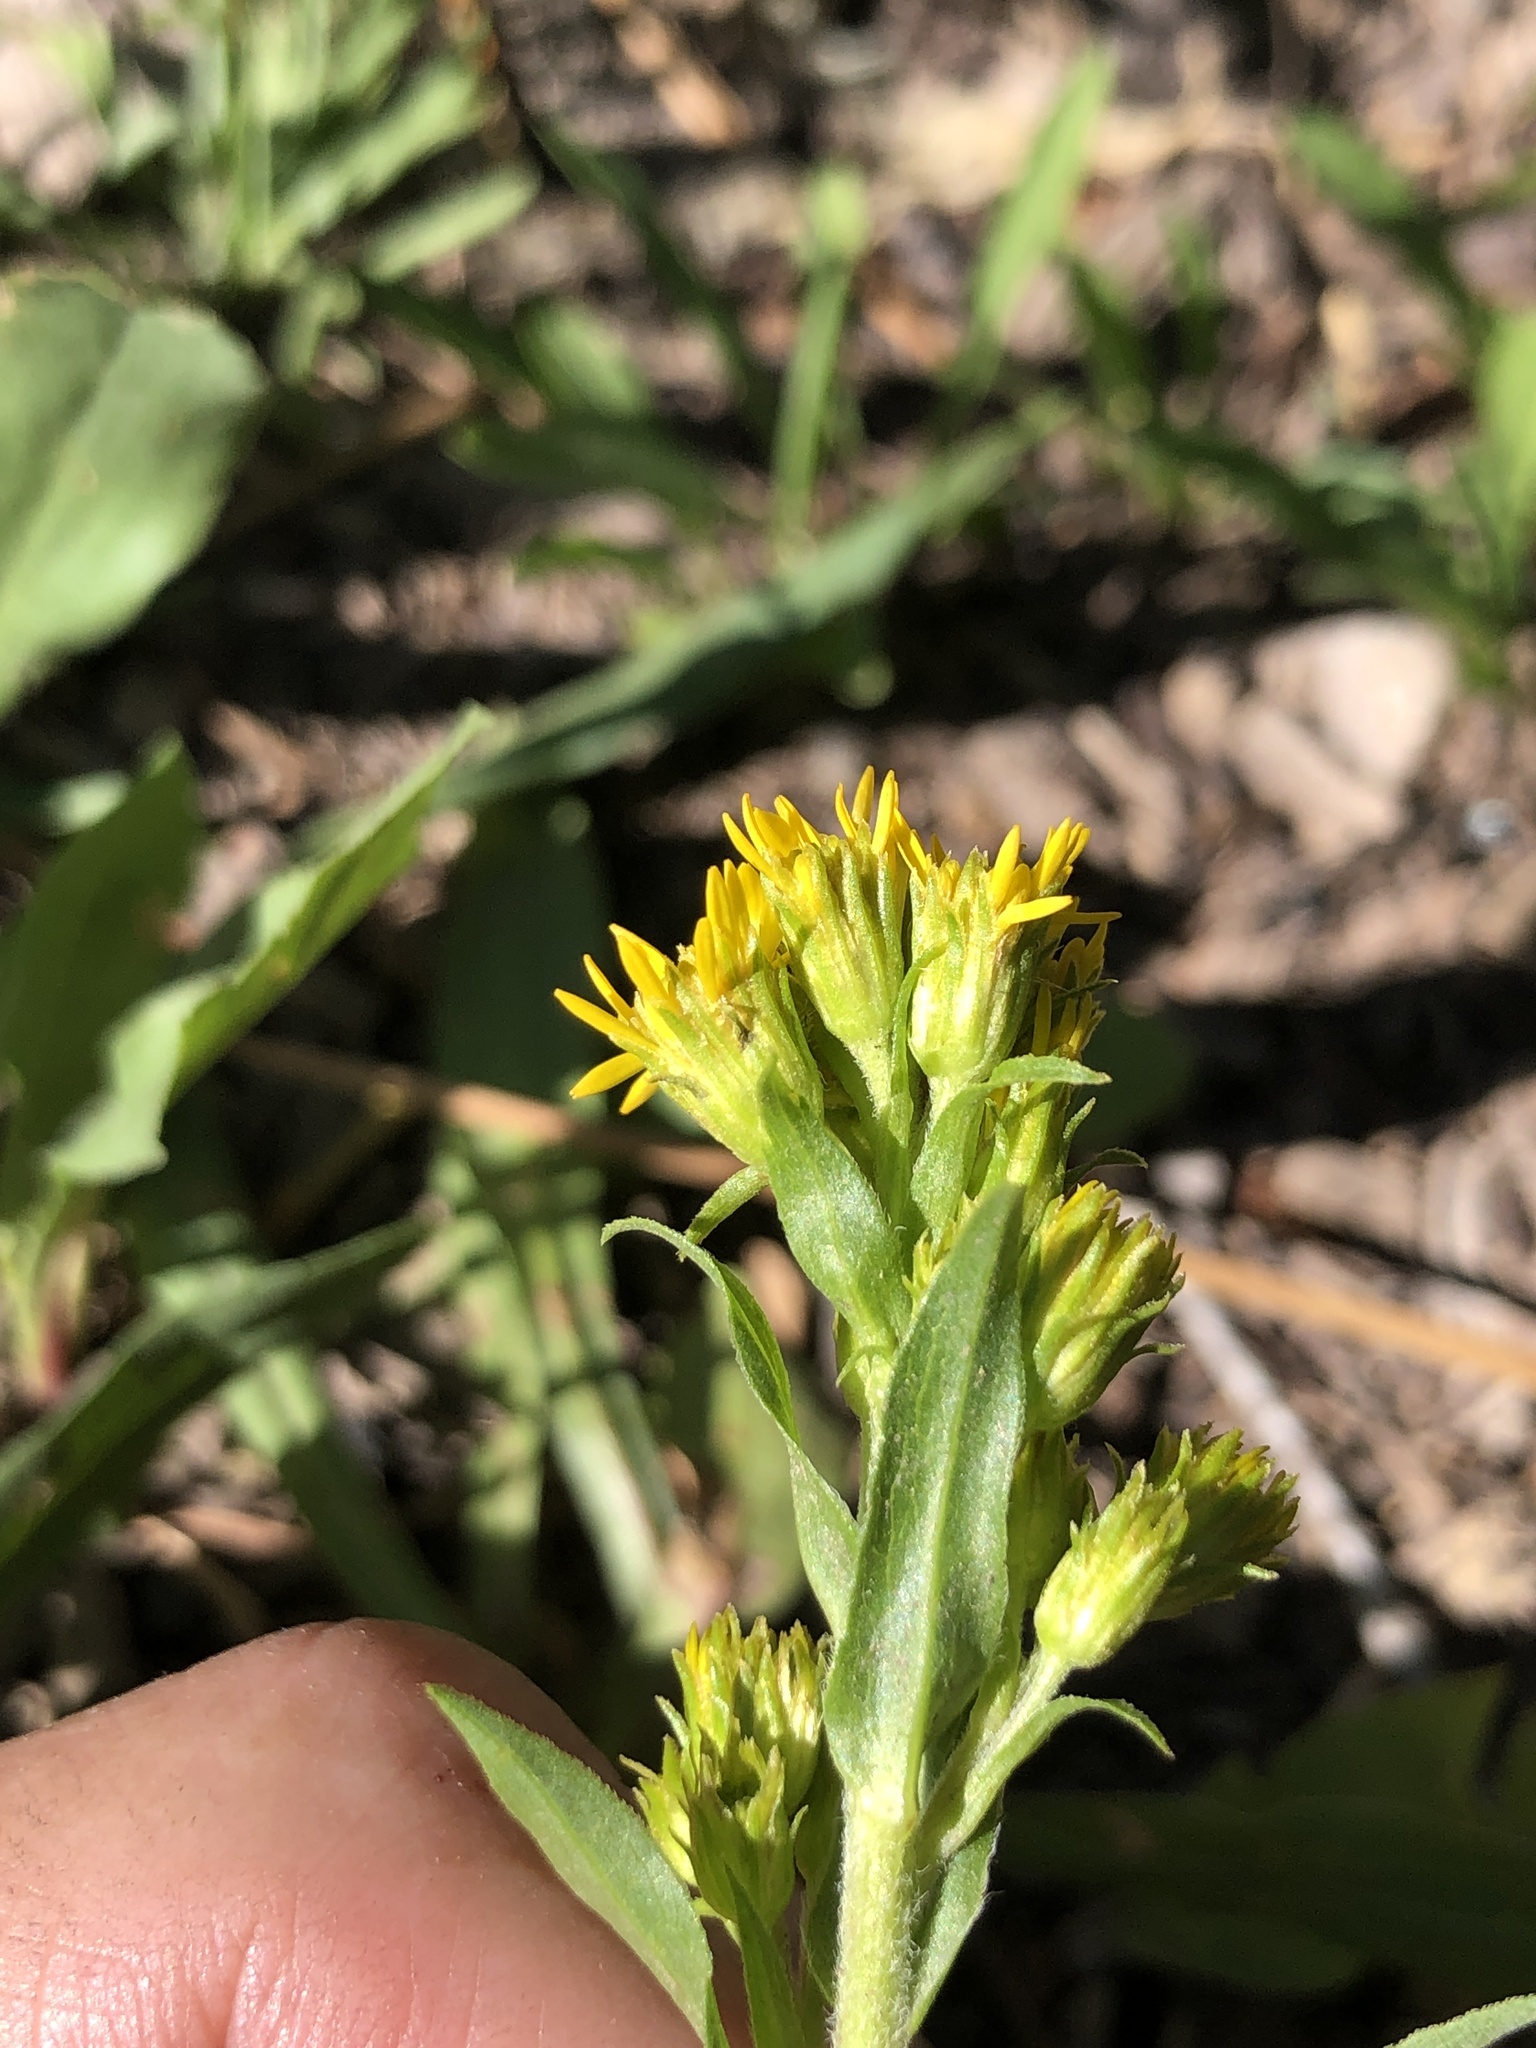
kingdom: Plantae
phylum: Tracheophyta
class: Magnoliopsida
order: Asterales
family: Asteraceae
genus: Oreochrysum
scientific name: Oreochrysum parryi
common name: Parry's goldenweed
